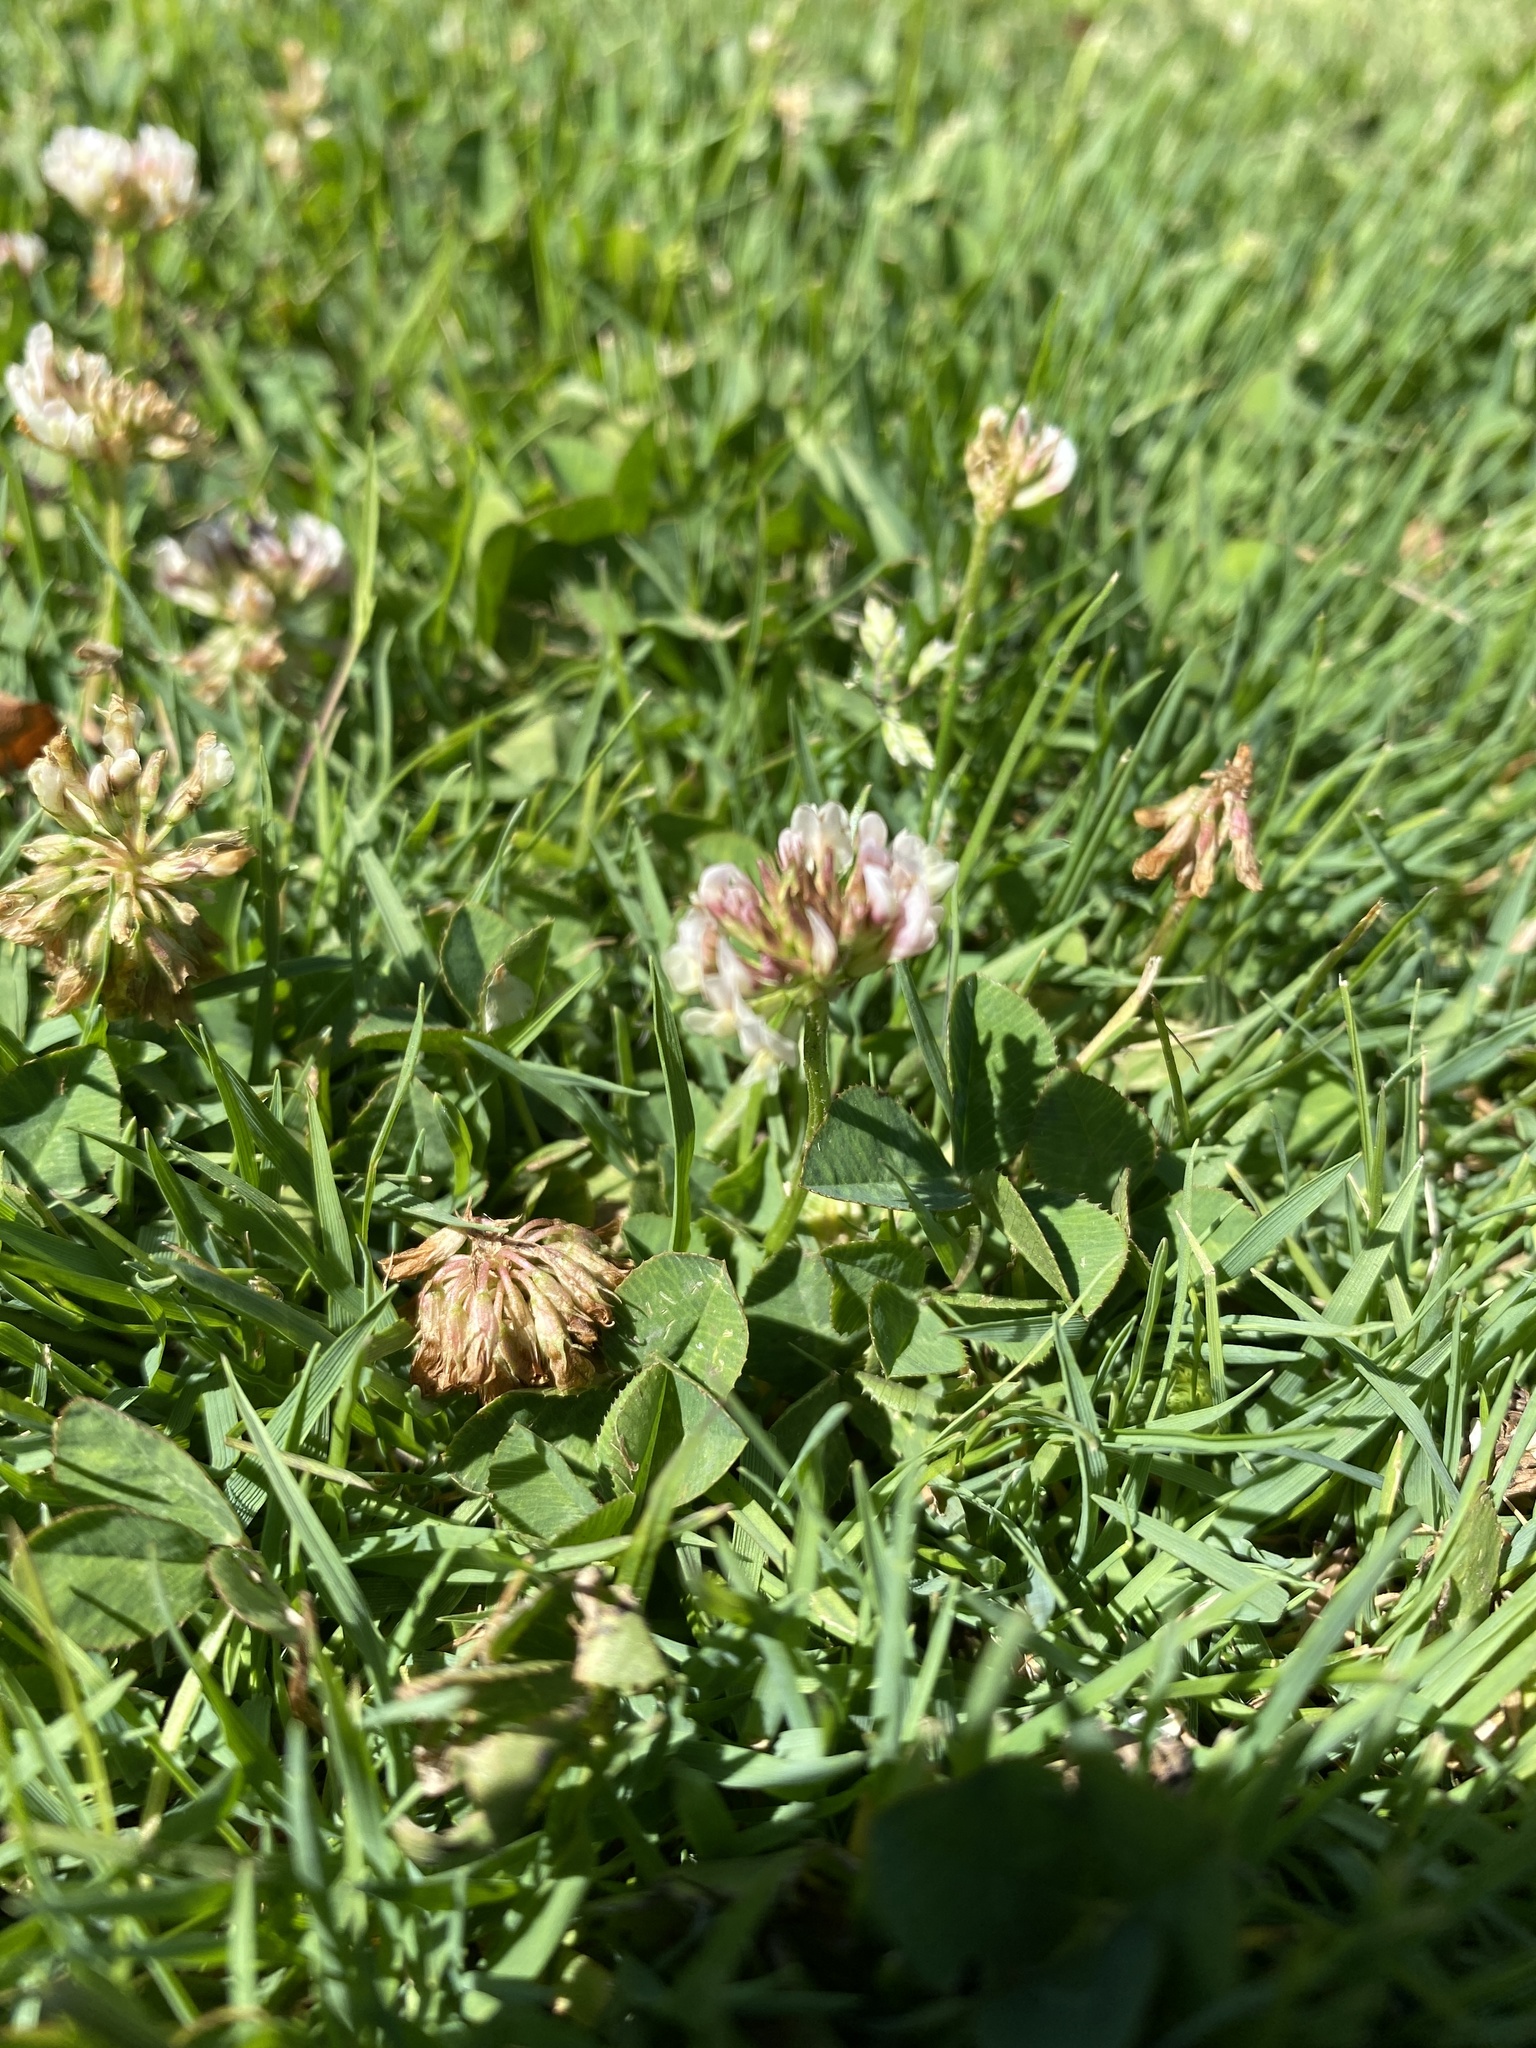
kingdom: Plantae
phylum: Tracheophyta
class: Magnoliopsida
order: Fabales
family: Fabaceae
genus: Trifolium
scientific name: Trifolium repens
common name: White clover
